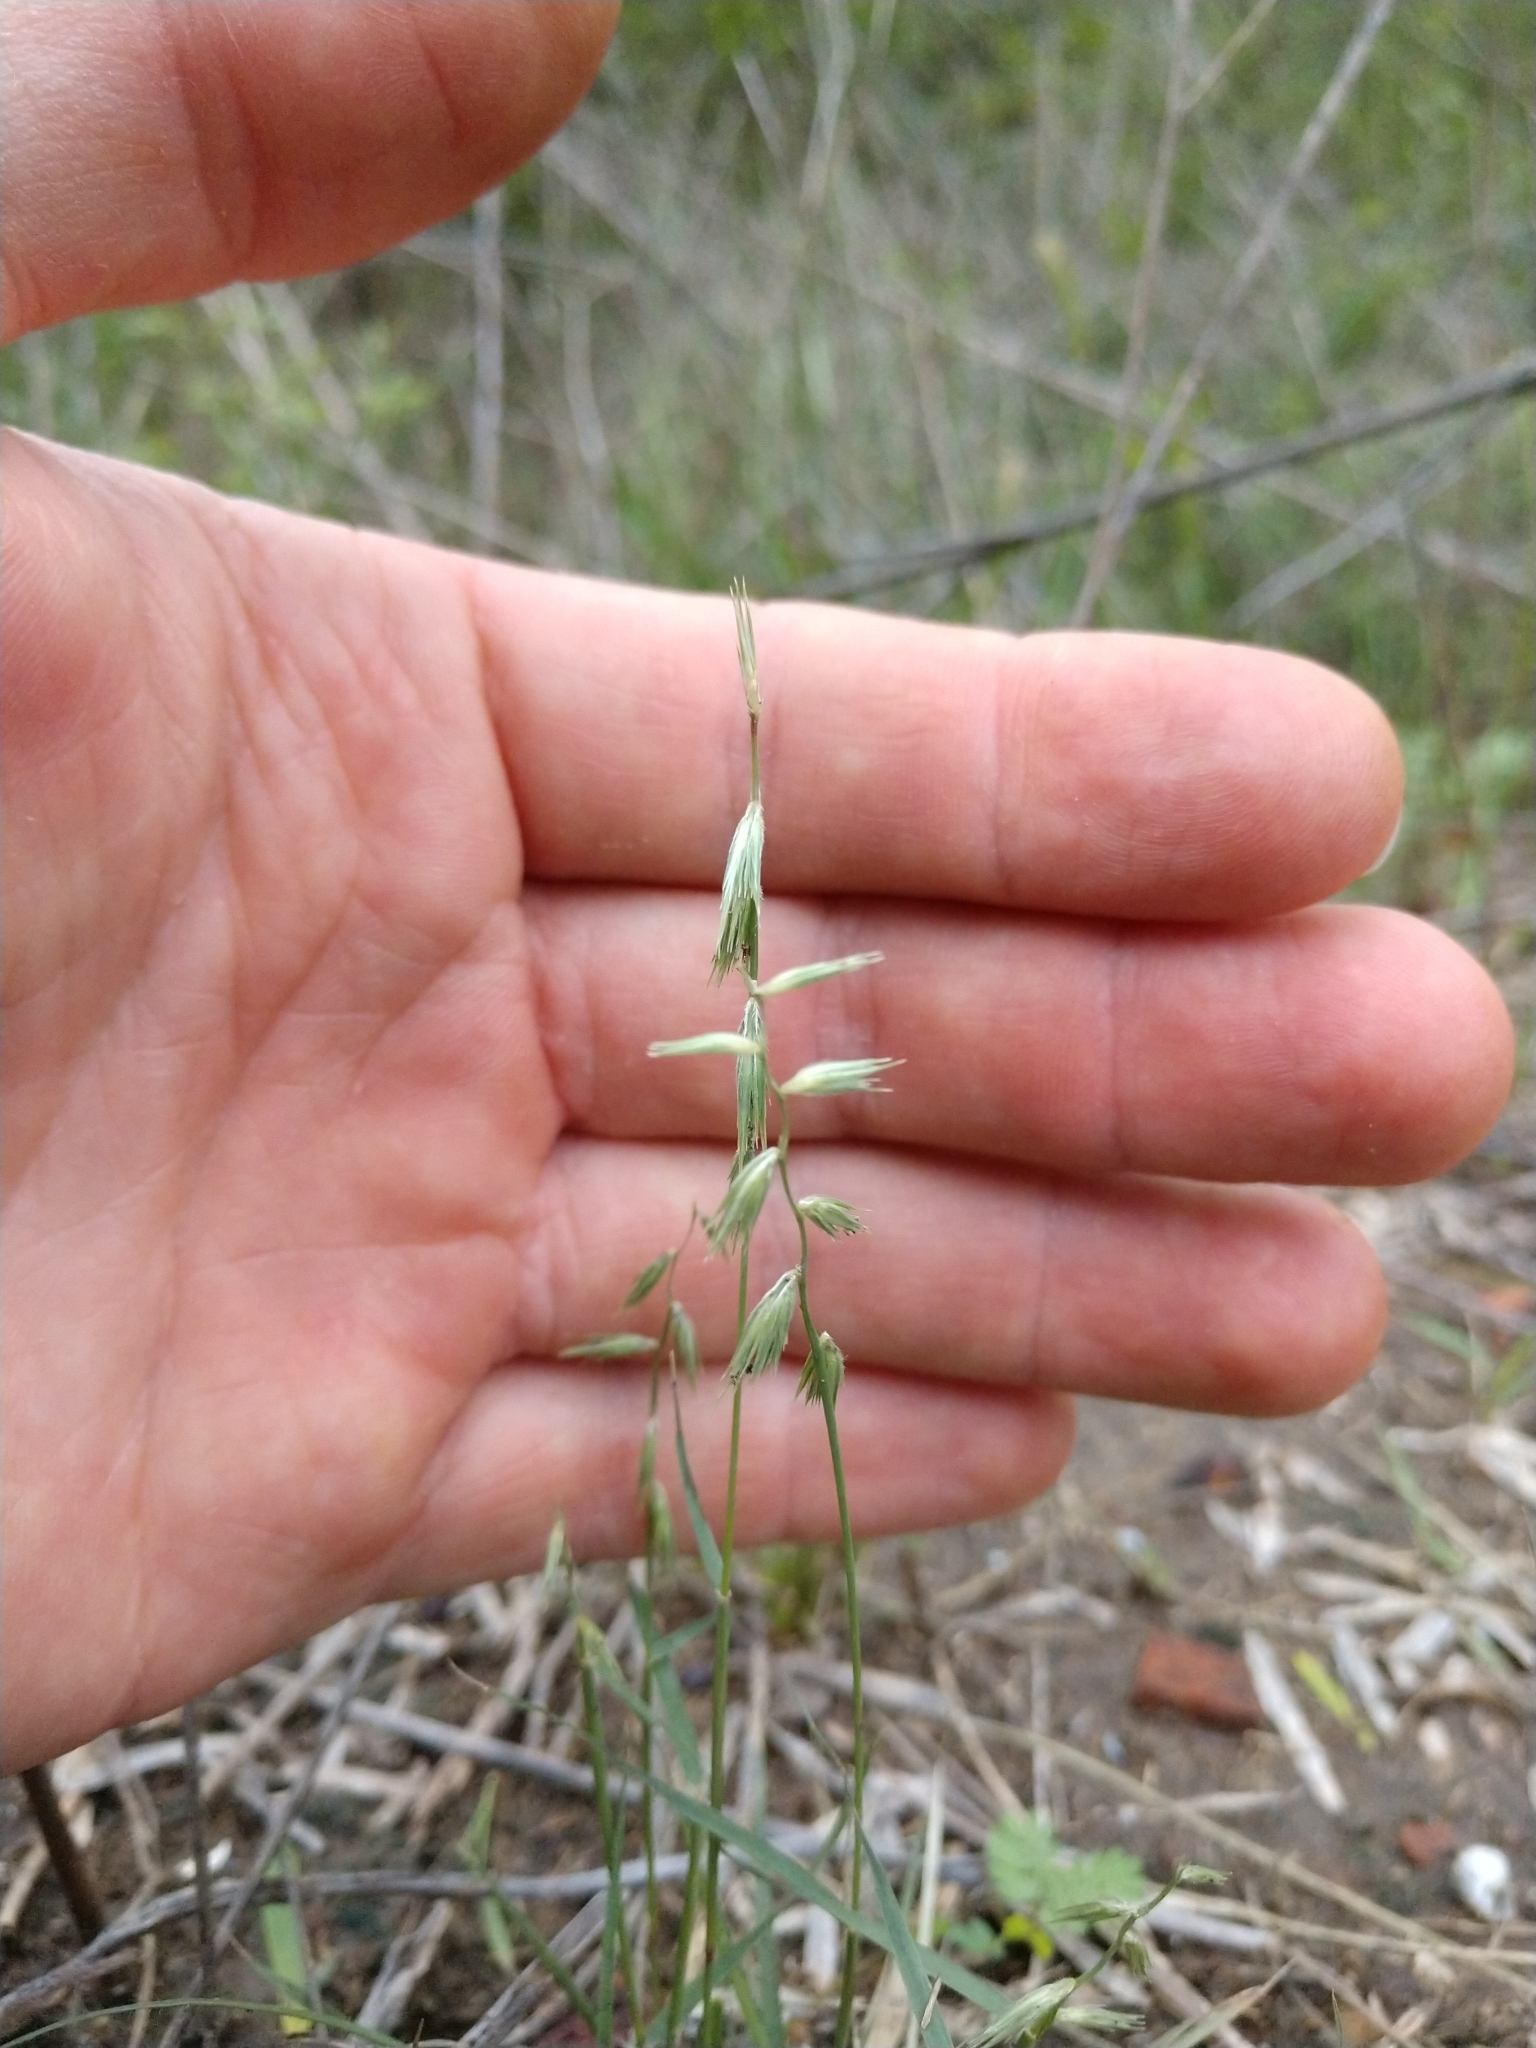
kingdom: Plantae
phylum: Tracheophyta
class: Liliopsida
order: Poales
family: Poaceae
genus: Bouteloua
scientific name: Bouteloua rigidiseta
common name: Texas grama
